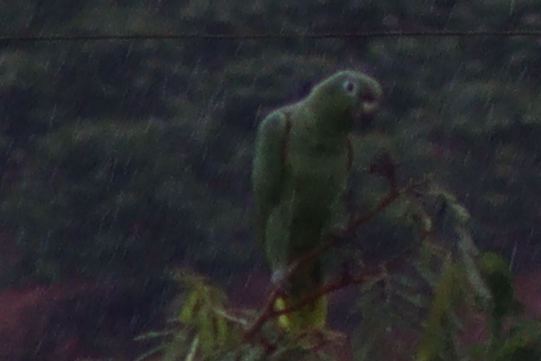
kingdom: Animalia
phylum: Chordata
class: Aves
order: Psittaciformes
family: Psittacidae
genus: Amazona
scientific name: Amazona farinosa
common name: Mealy parrot
